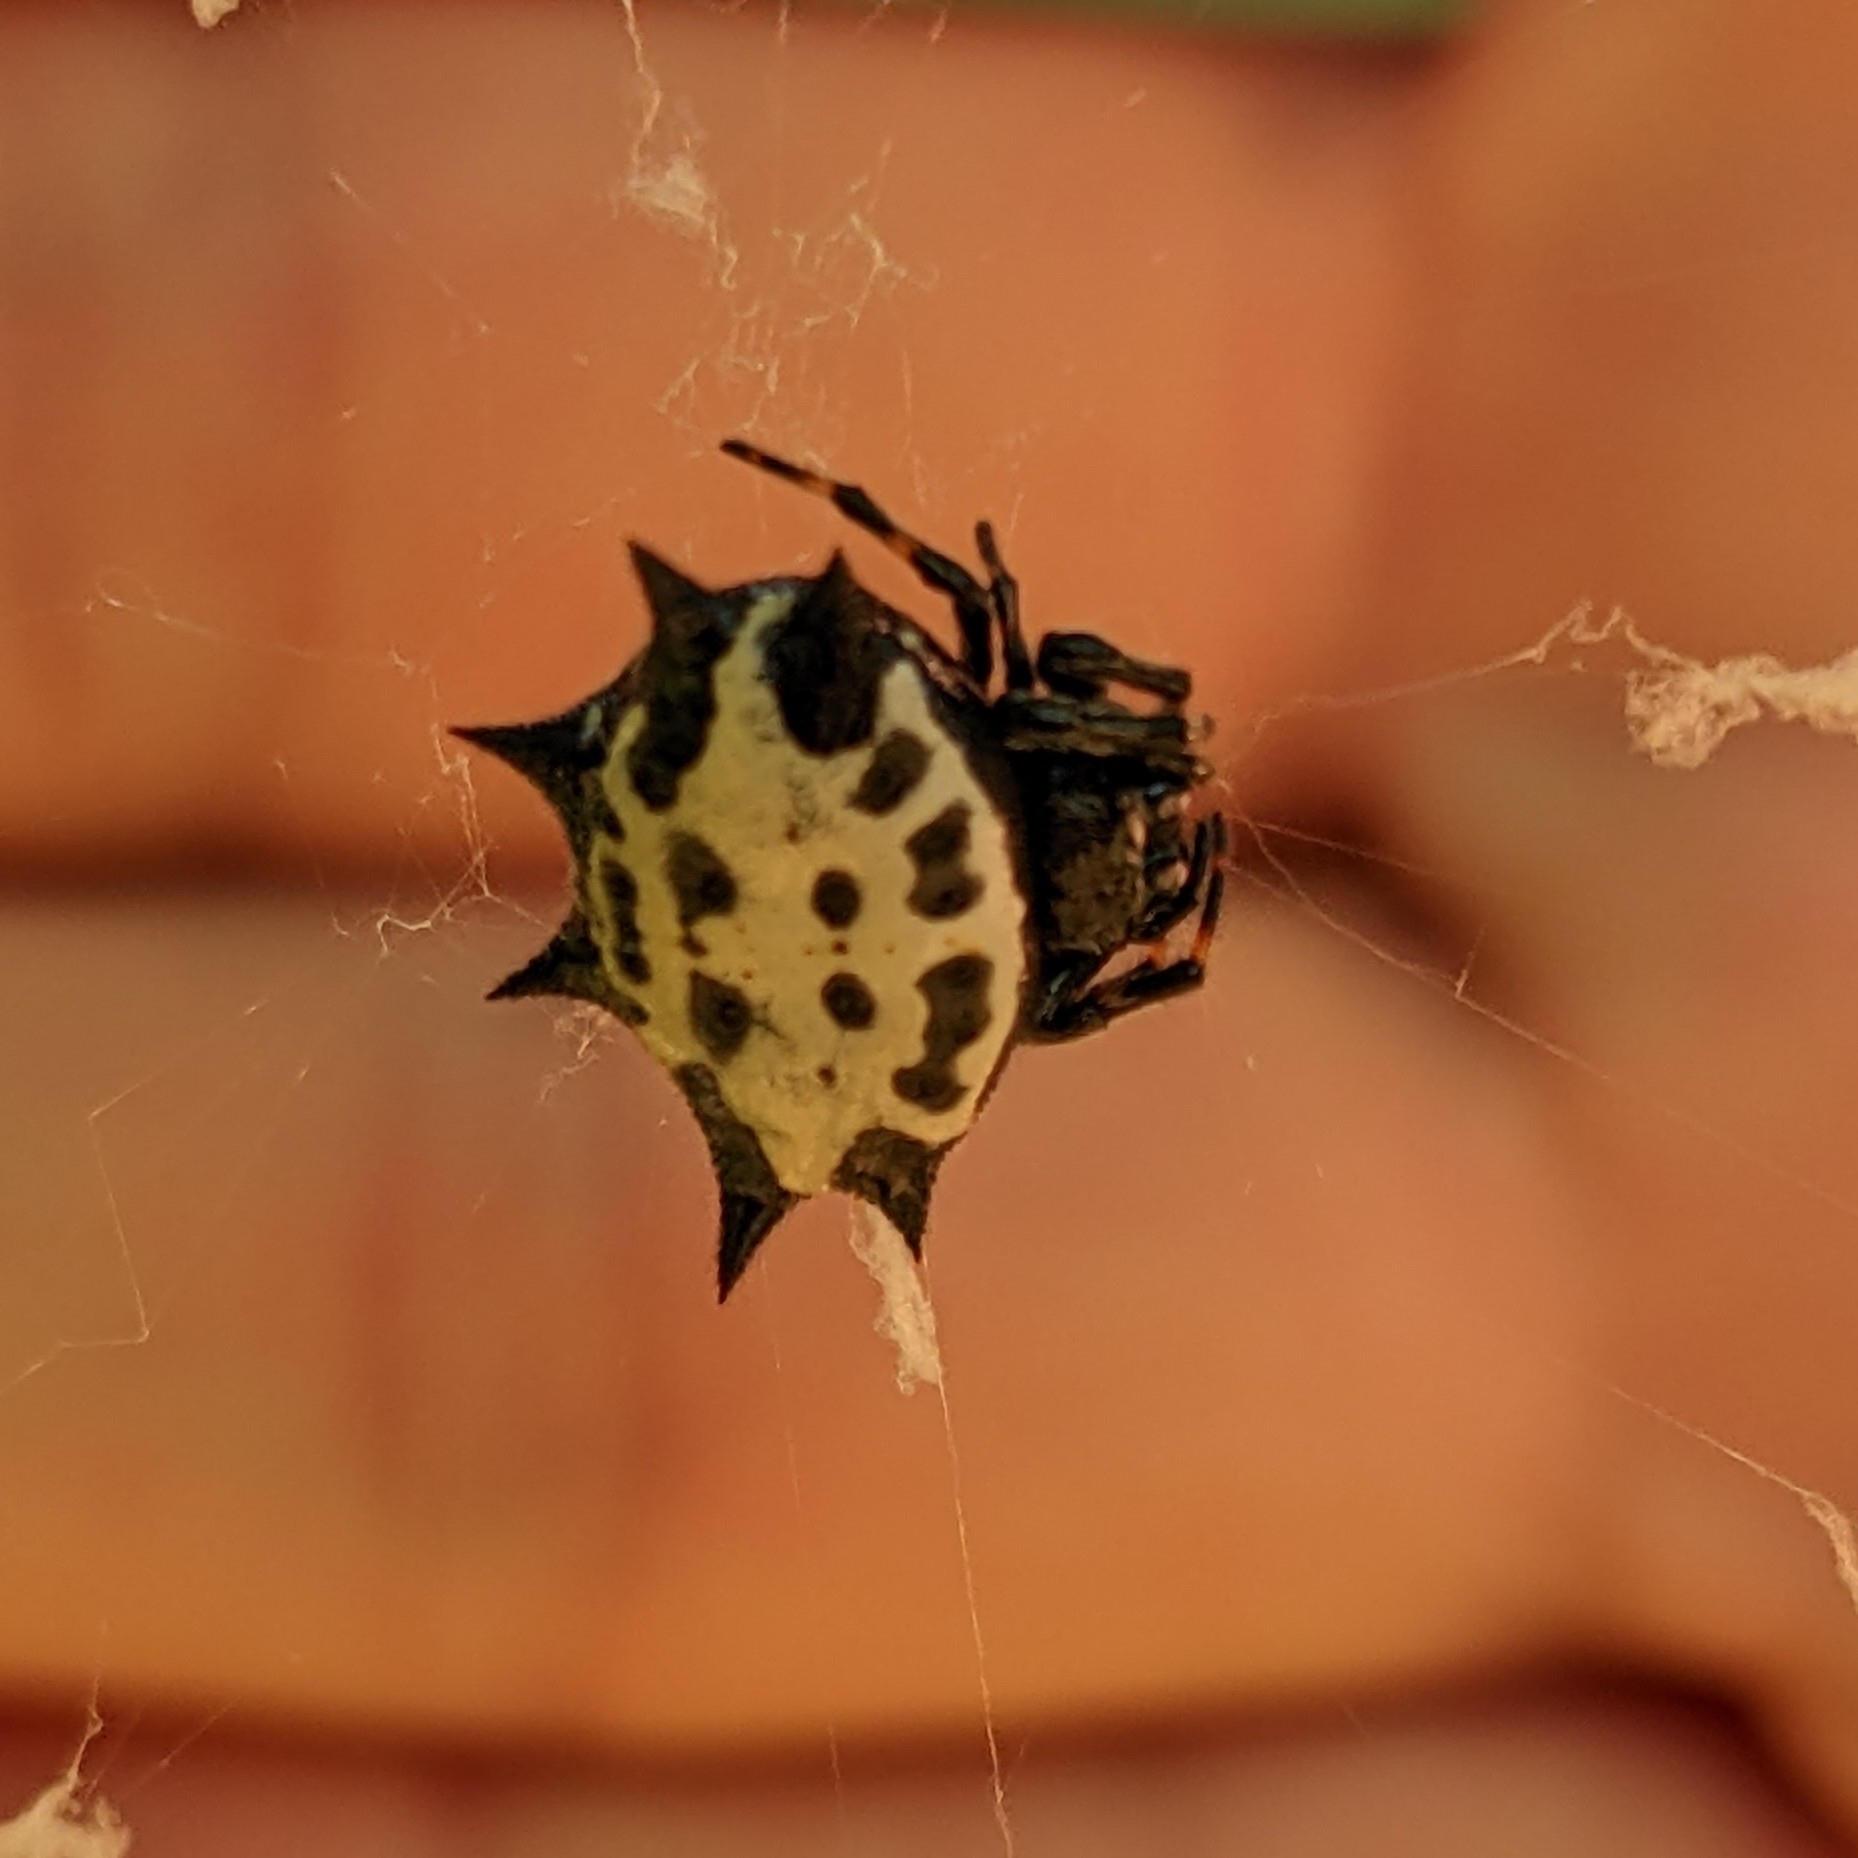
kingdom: Animalia
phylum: Arthropoda
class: Arachnida
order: Araneae
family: Araneidae
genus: Gasteracantha
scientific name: Gasteracantha cancriformis
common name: Orb weavers
